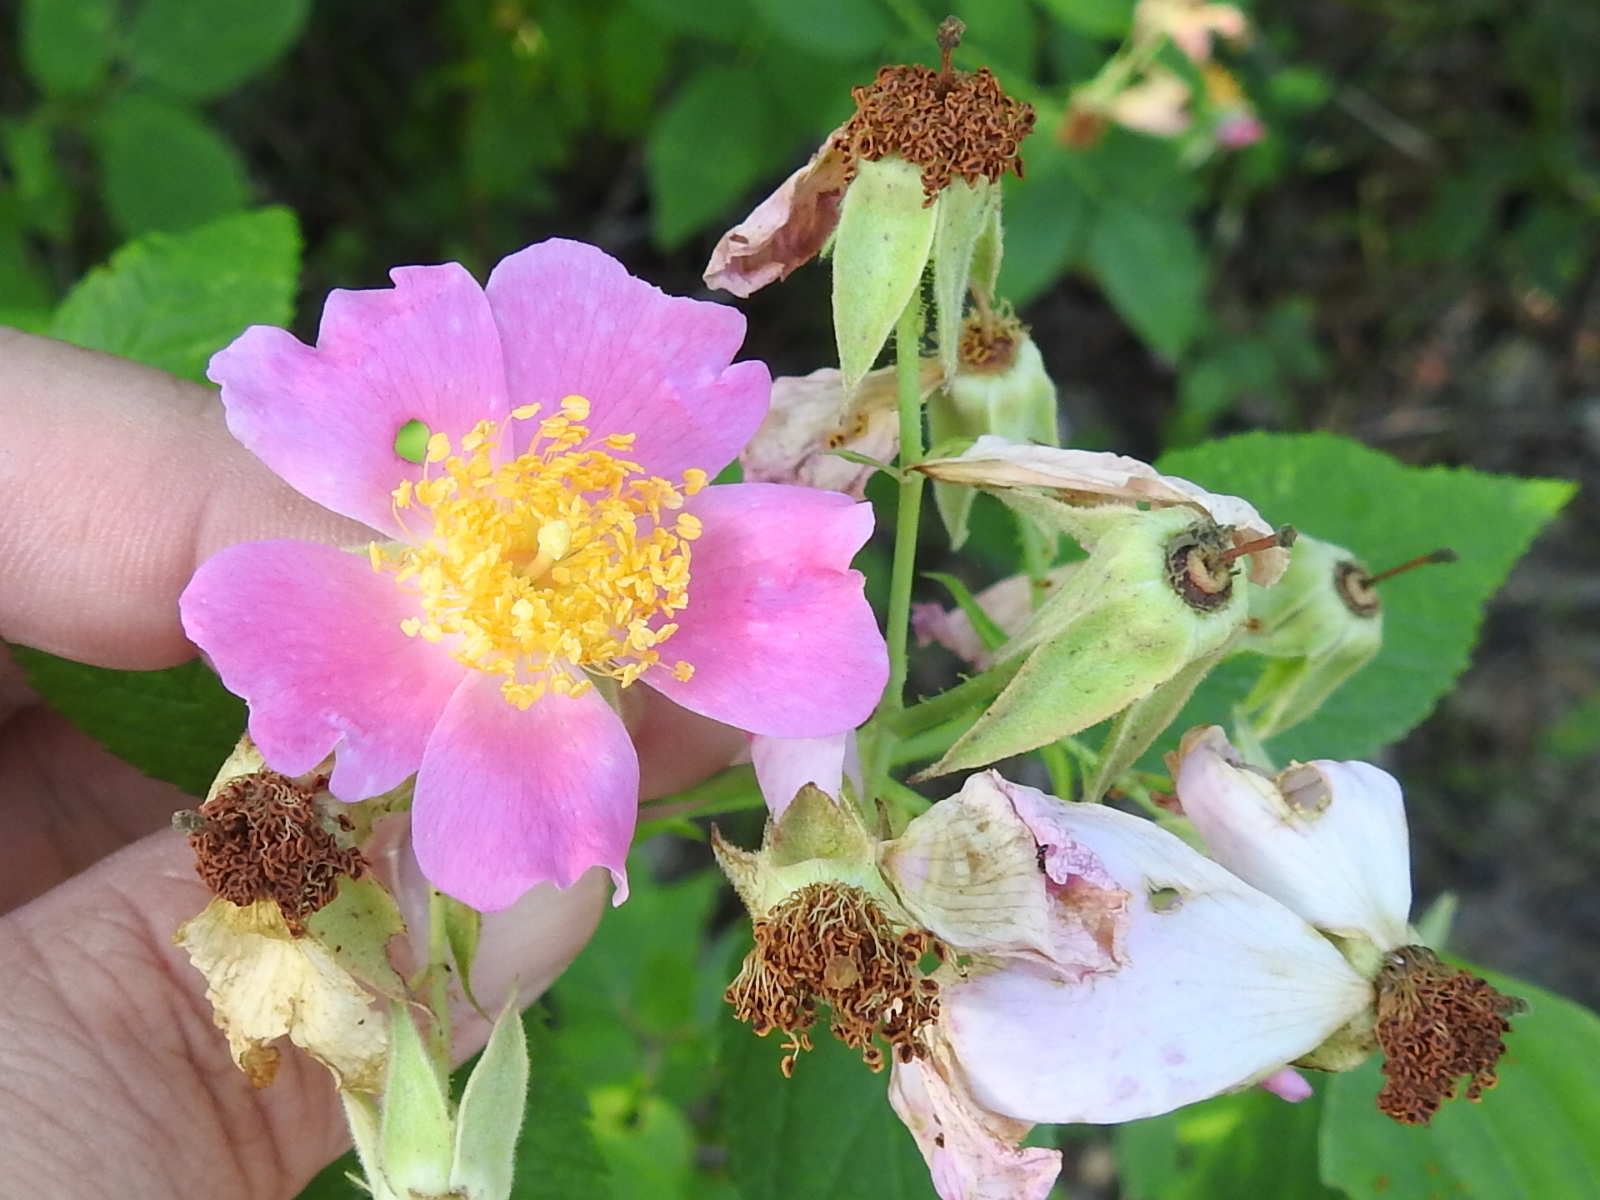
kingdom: Plantae
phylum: Tracheophyta
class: Magnoliopsida
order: Rosales
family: Rosaceae
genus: Rosa
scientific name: Rosa setigera
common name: Prairie rose
